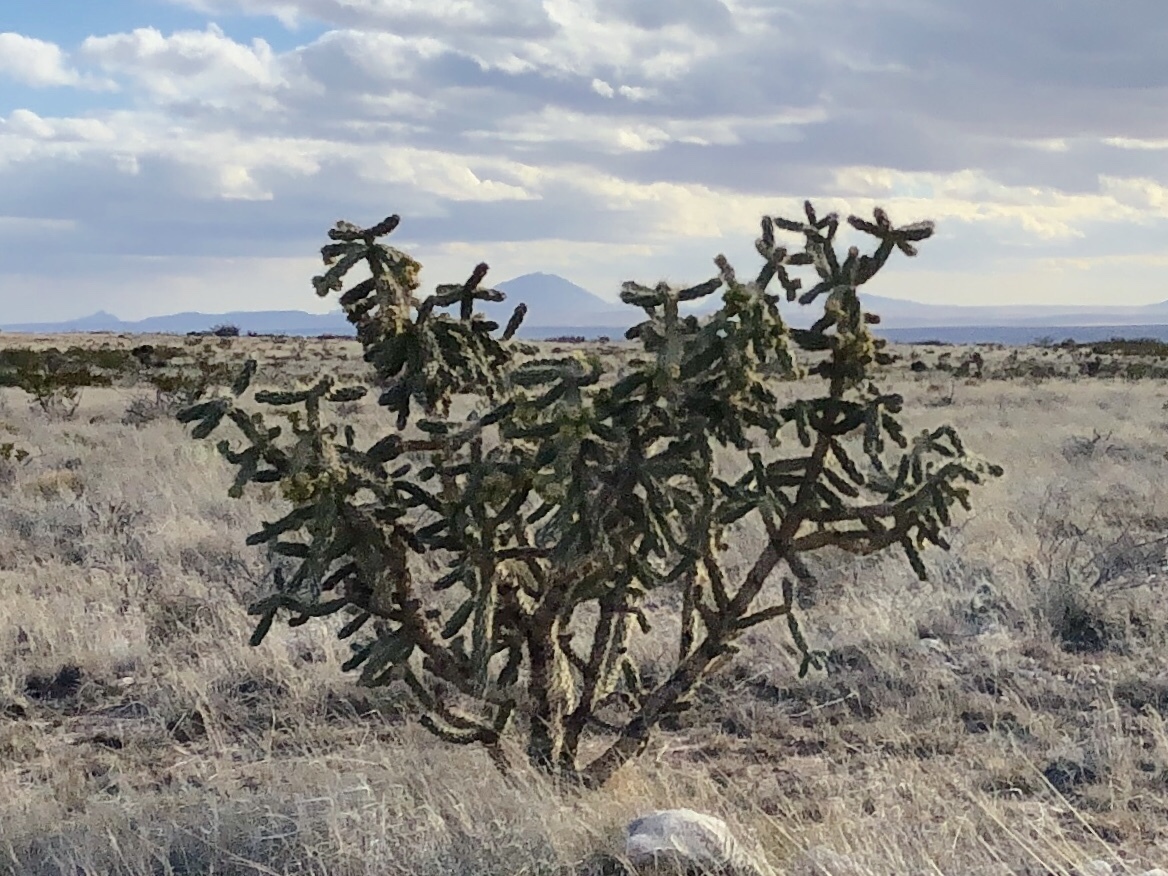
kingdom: Plantae
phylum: Tracheophyta
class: Magnoliopsida
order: Caryophyllales
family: Cactaceae
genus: Cylindropuntia
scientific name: Cylindropuntia imbricata
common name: Candelabrum cactus
